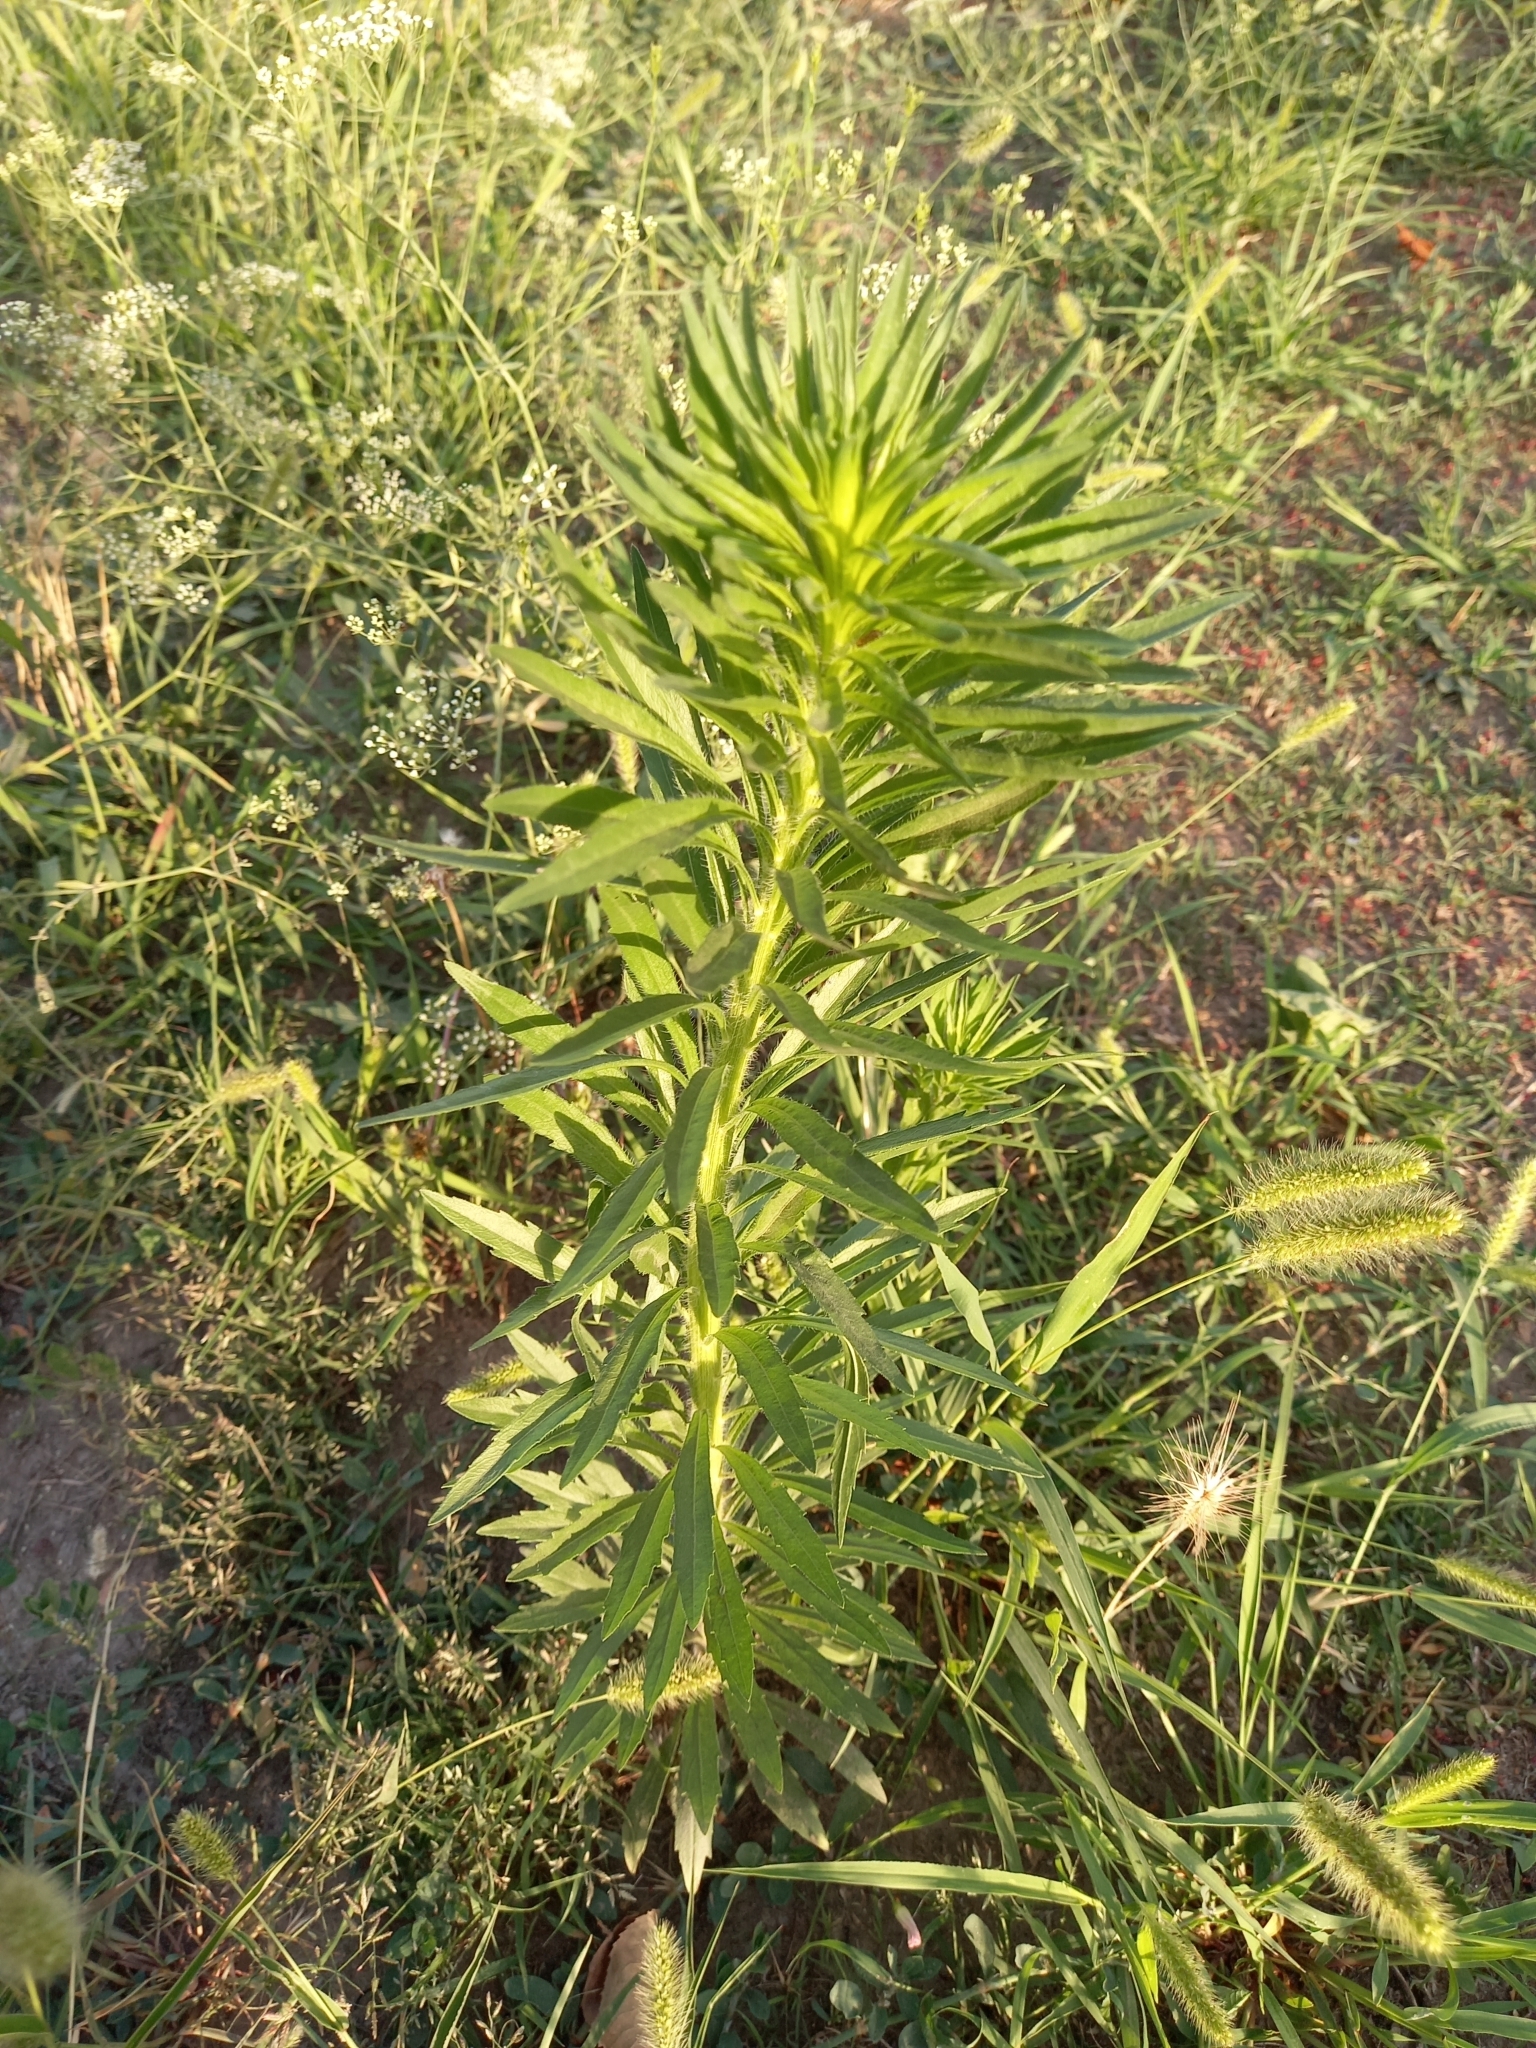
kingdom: Plantae
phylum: Tracheophyta
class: Magnoliopsida
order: Asterales
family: Asteraceae
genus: Erigeron
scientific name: Erigeron canadensis
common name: Canadian fleabane
